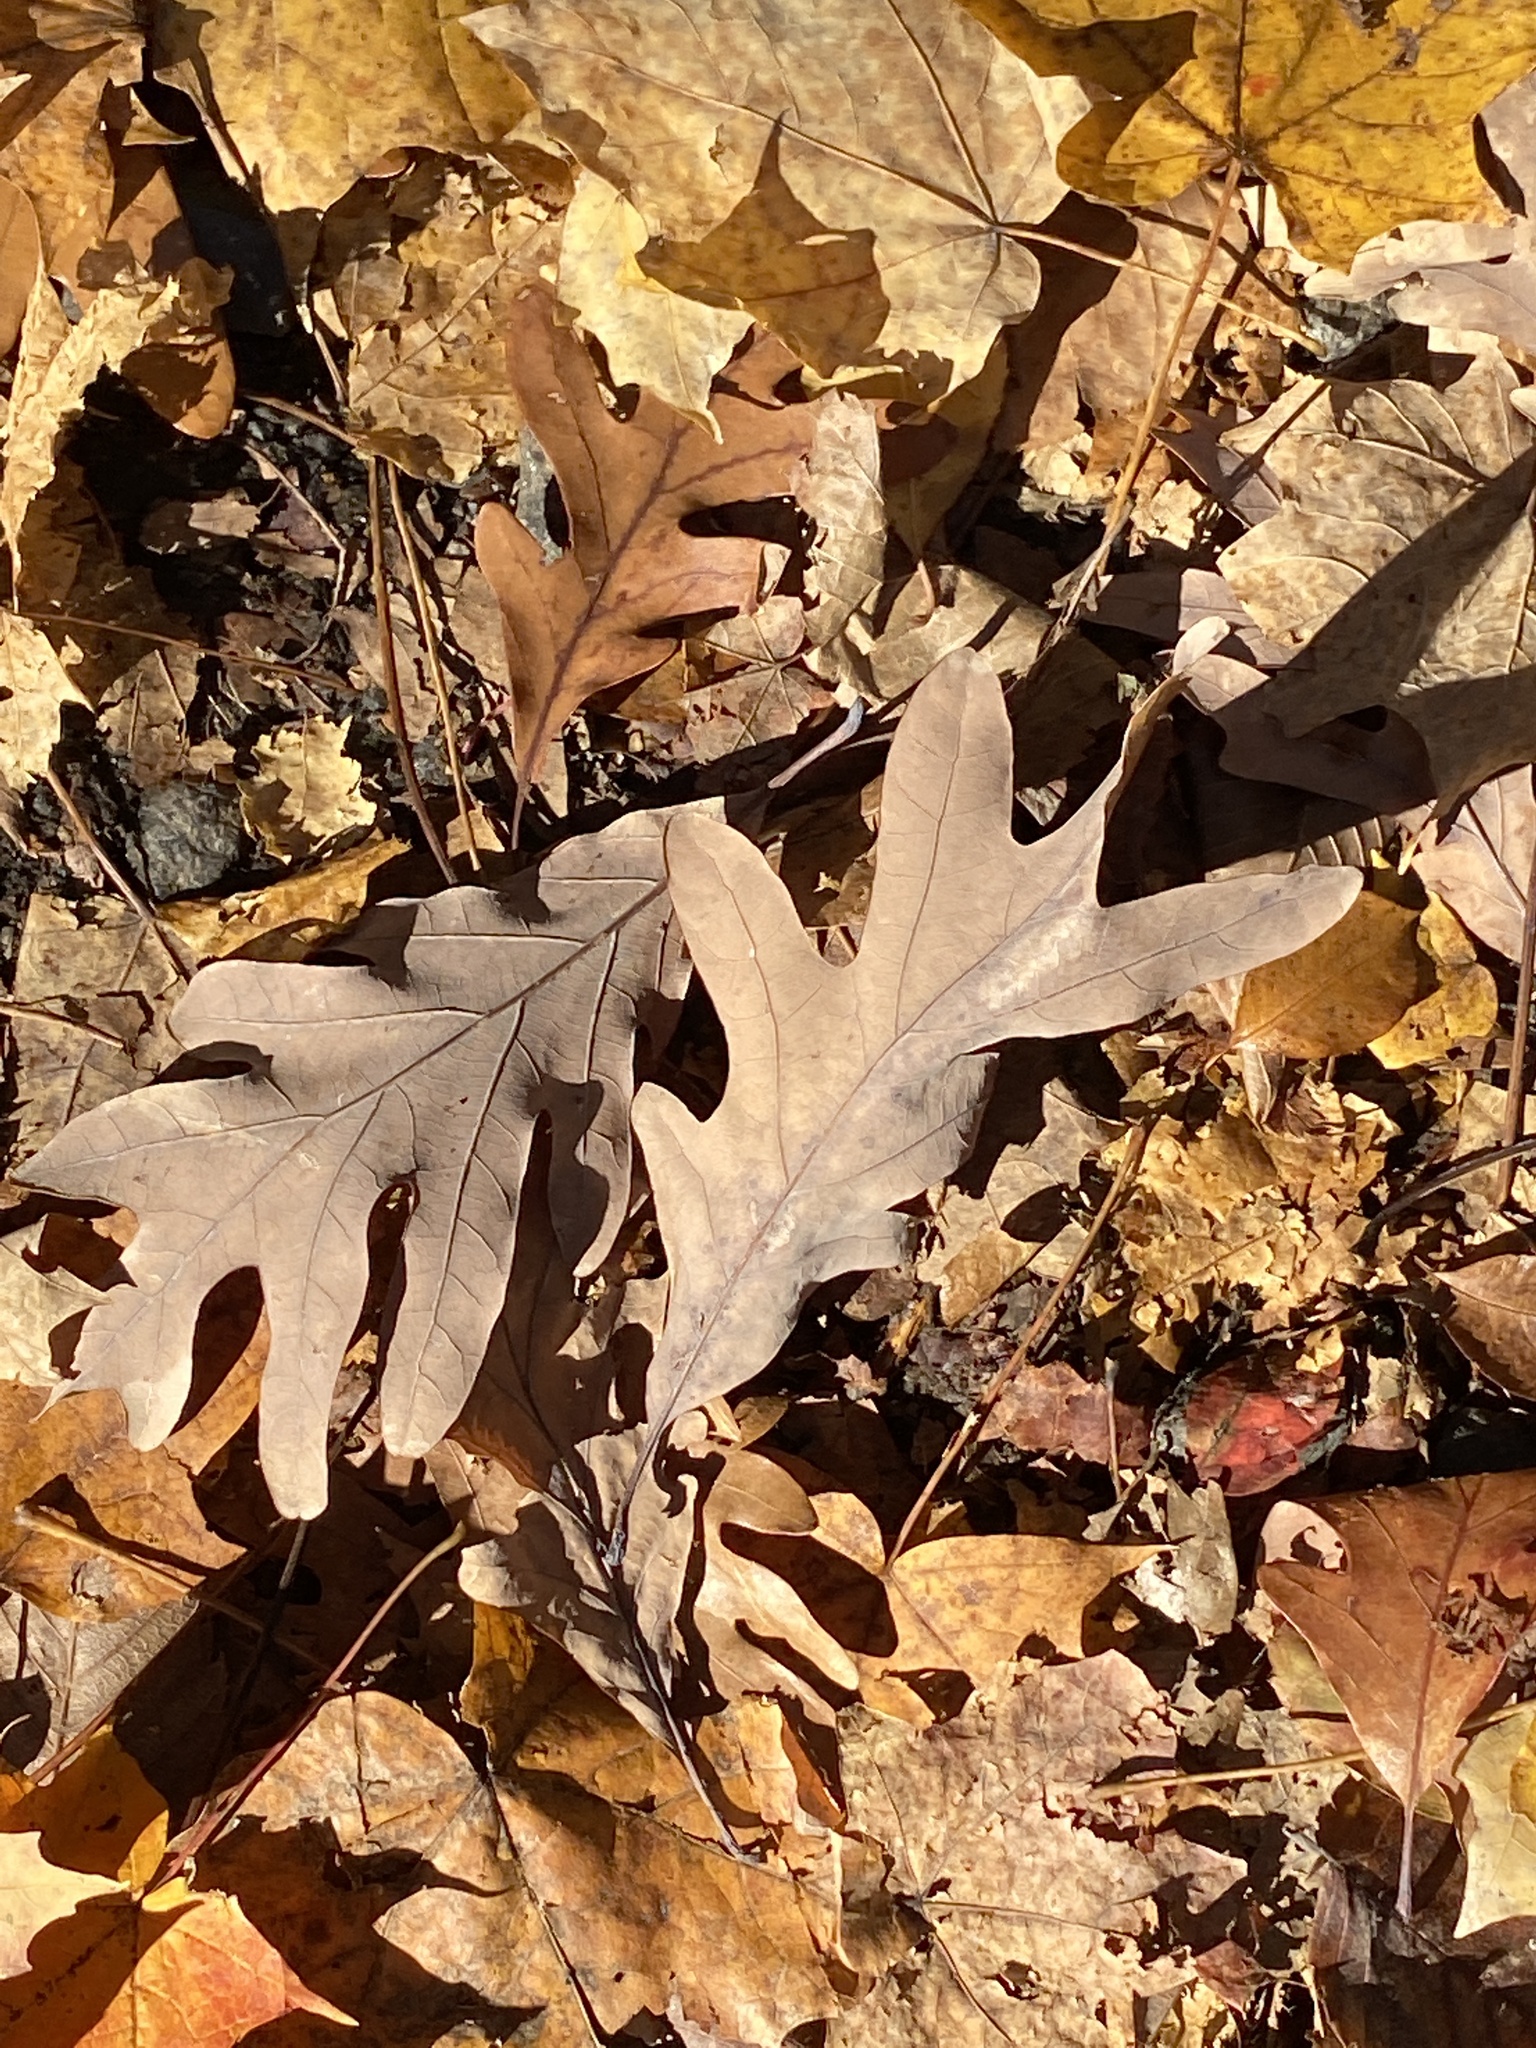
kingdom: Plantae
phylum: Tracheophyta
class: Magnoliopsida
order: Fagales
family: Fagaceae
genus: Quercus
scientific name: Quercus alba
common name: White oak
